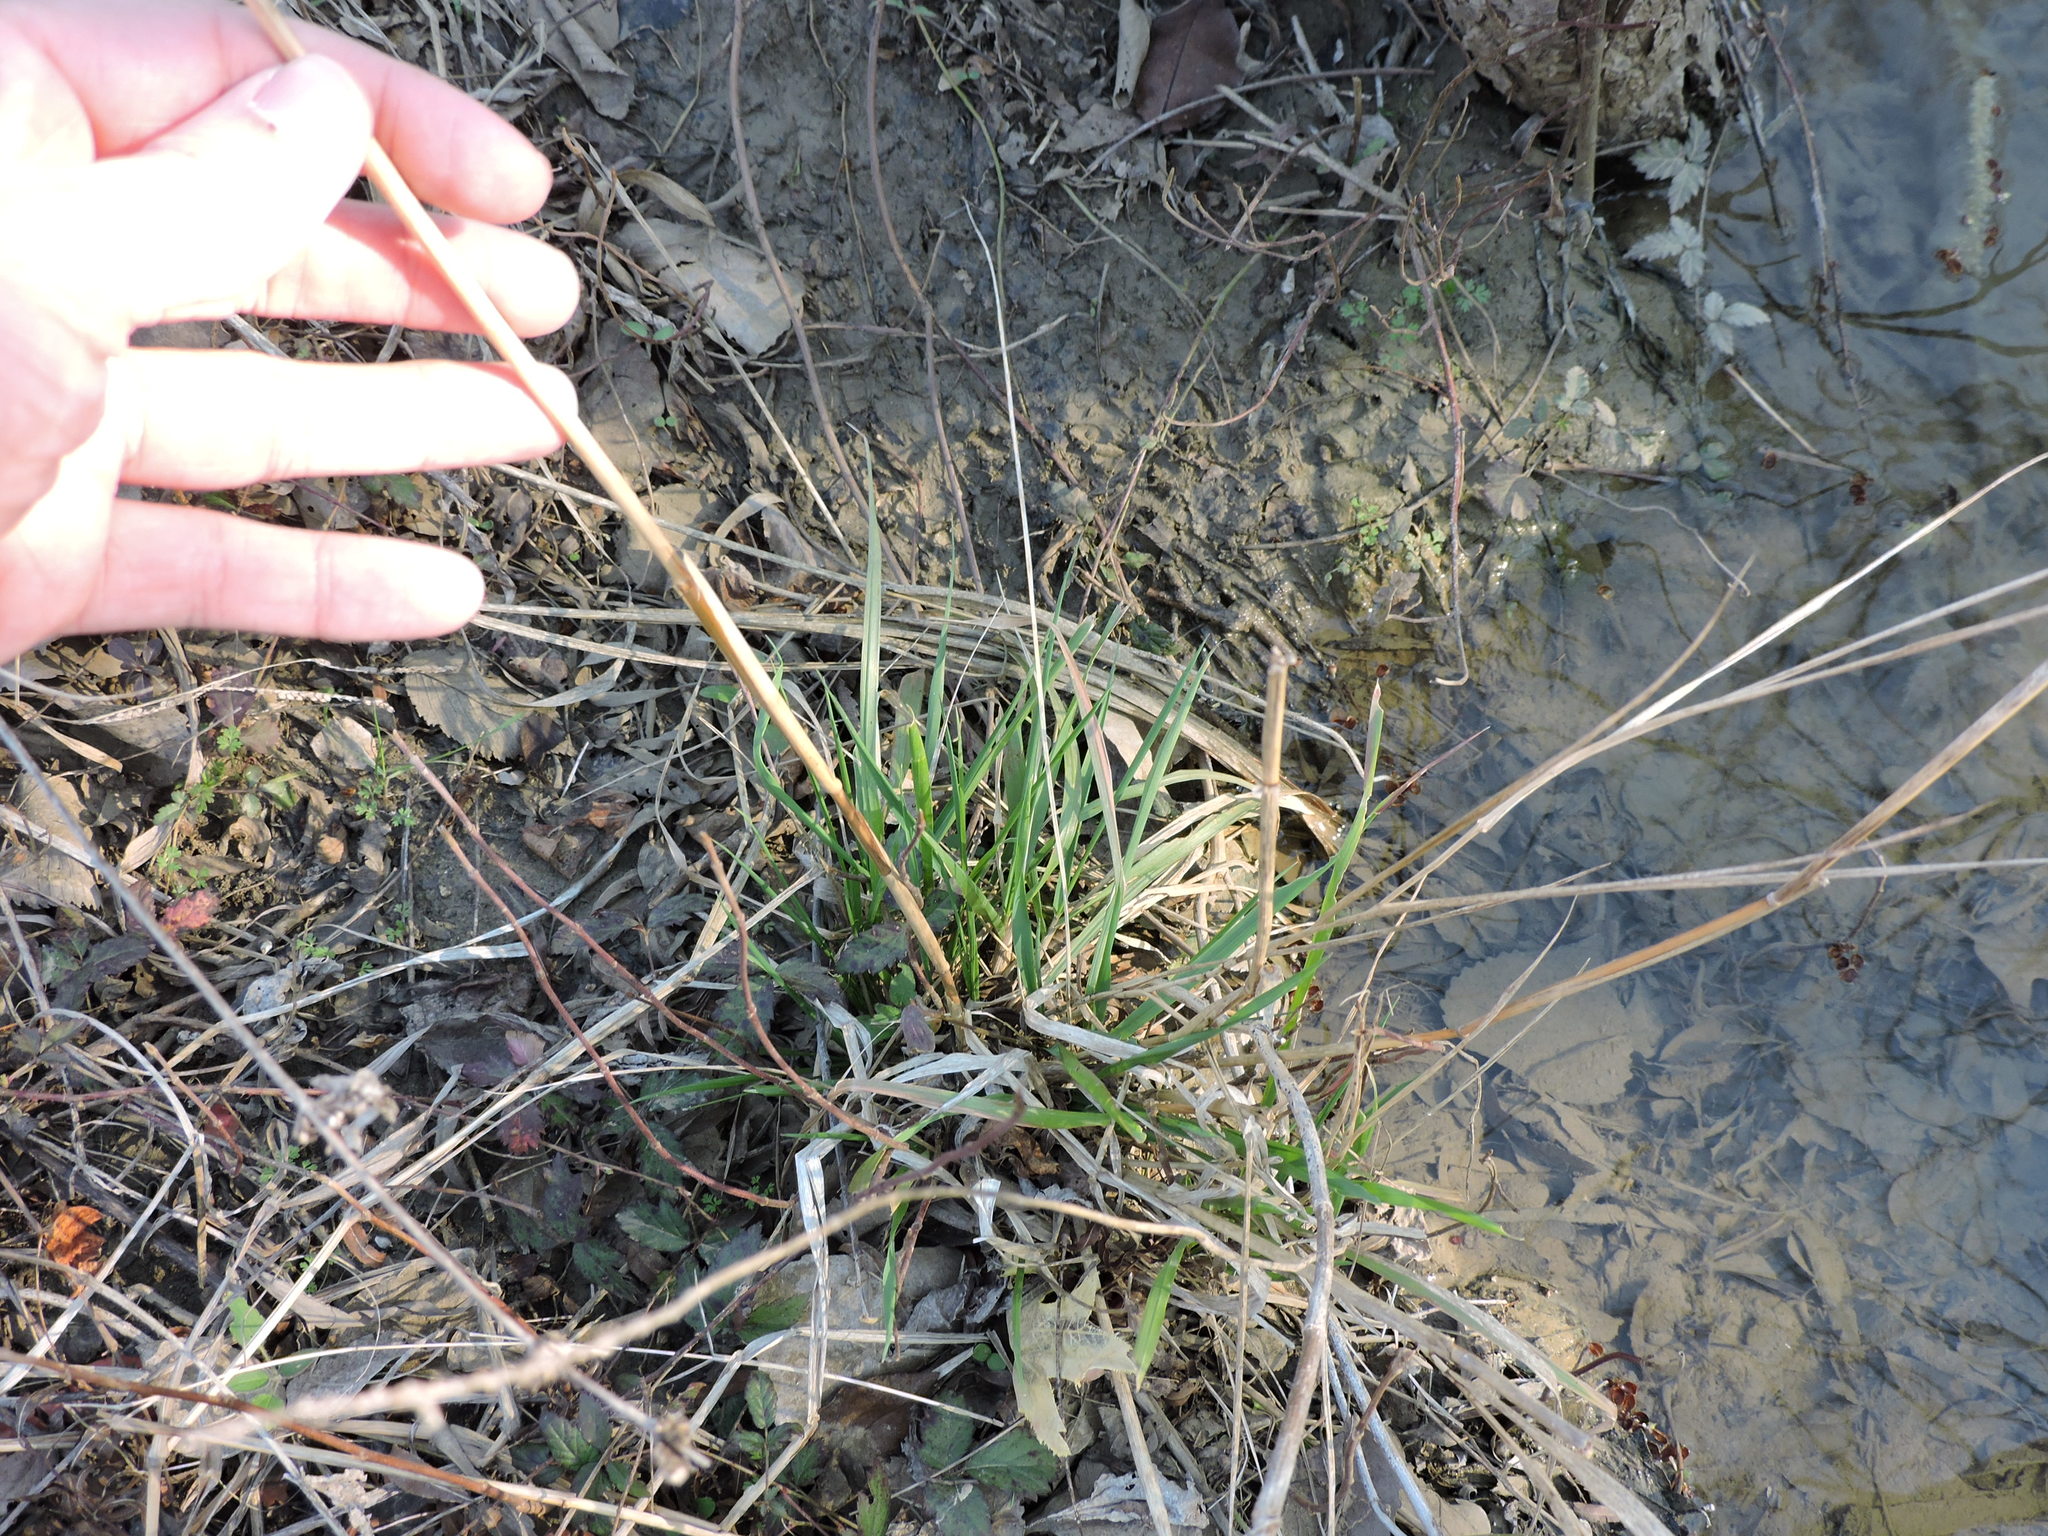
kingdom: Plantae
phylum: Tracheophyta
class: Liliopsida
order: Poales
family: Poaceae
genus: Elymus
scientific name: Elymus virginicus
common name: Common eastern wildrye
